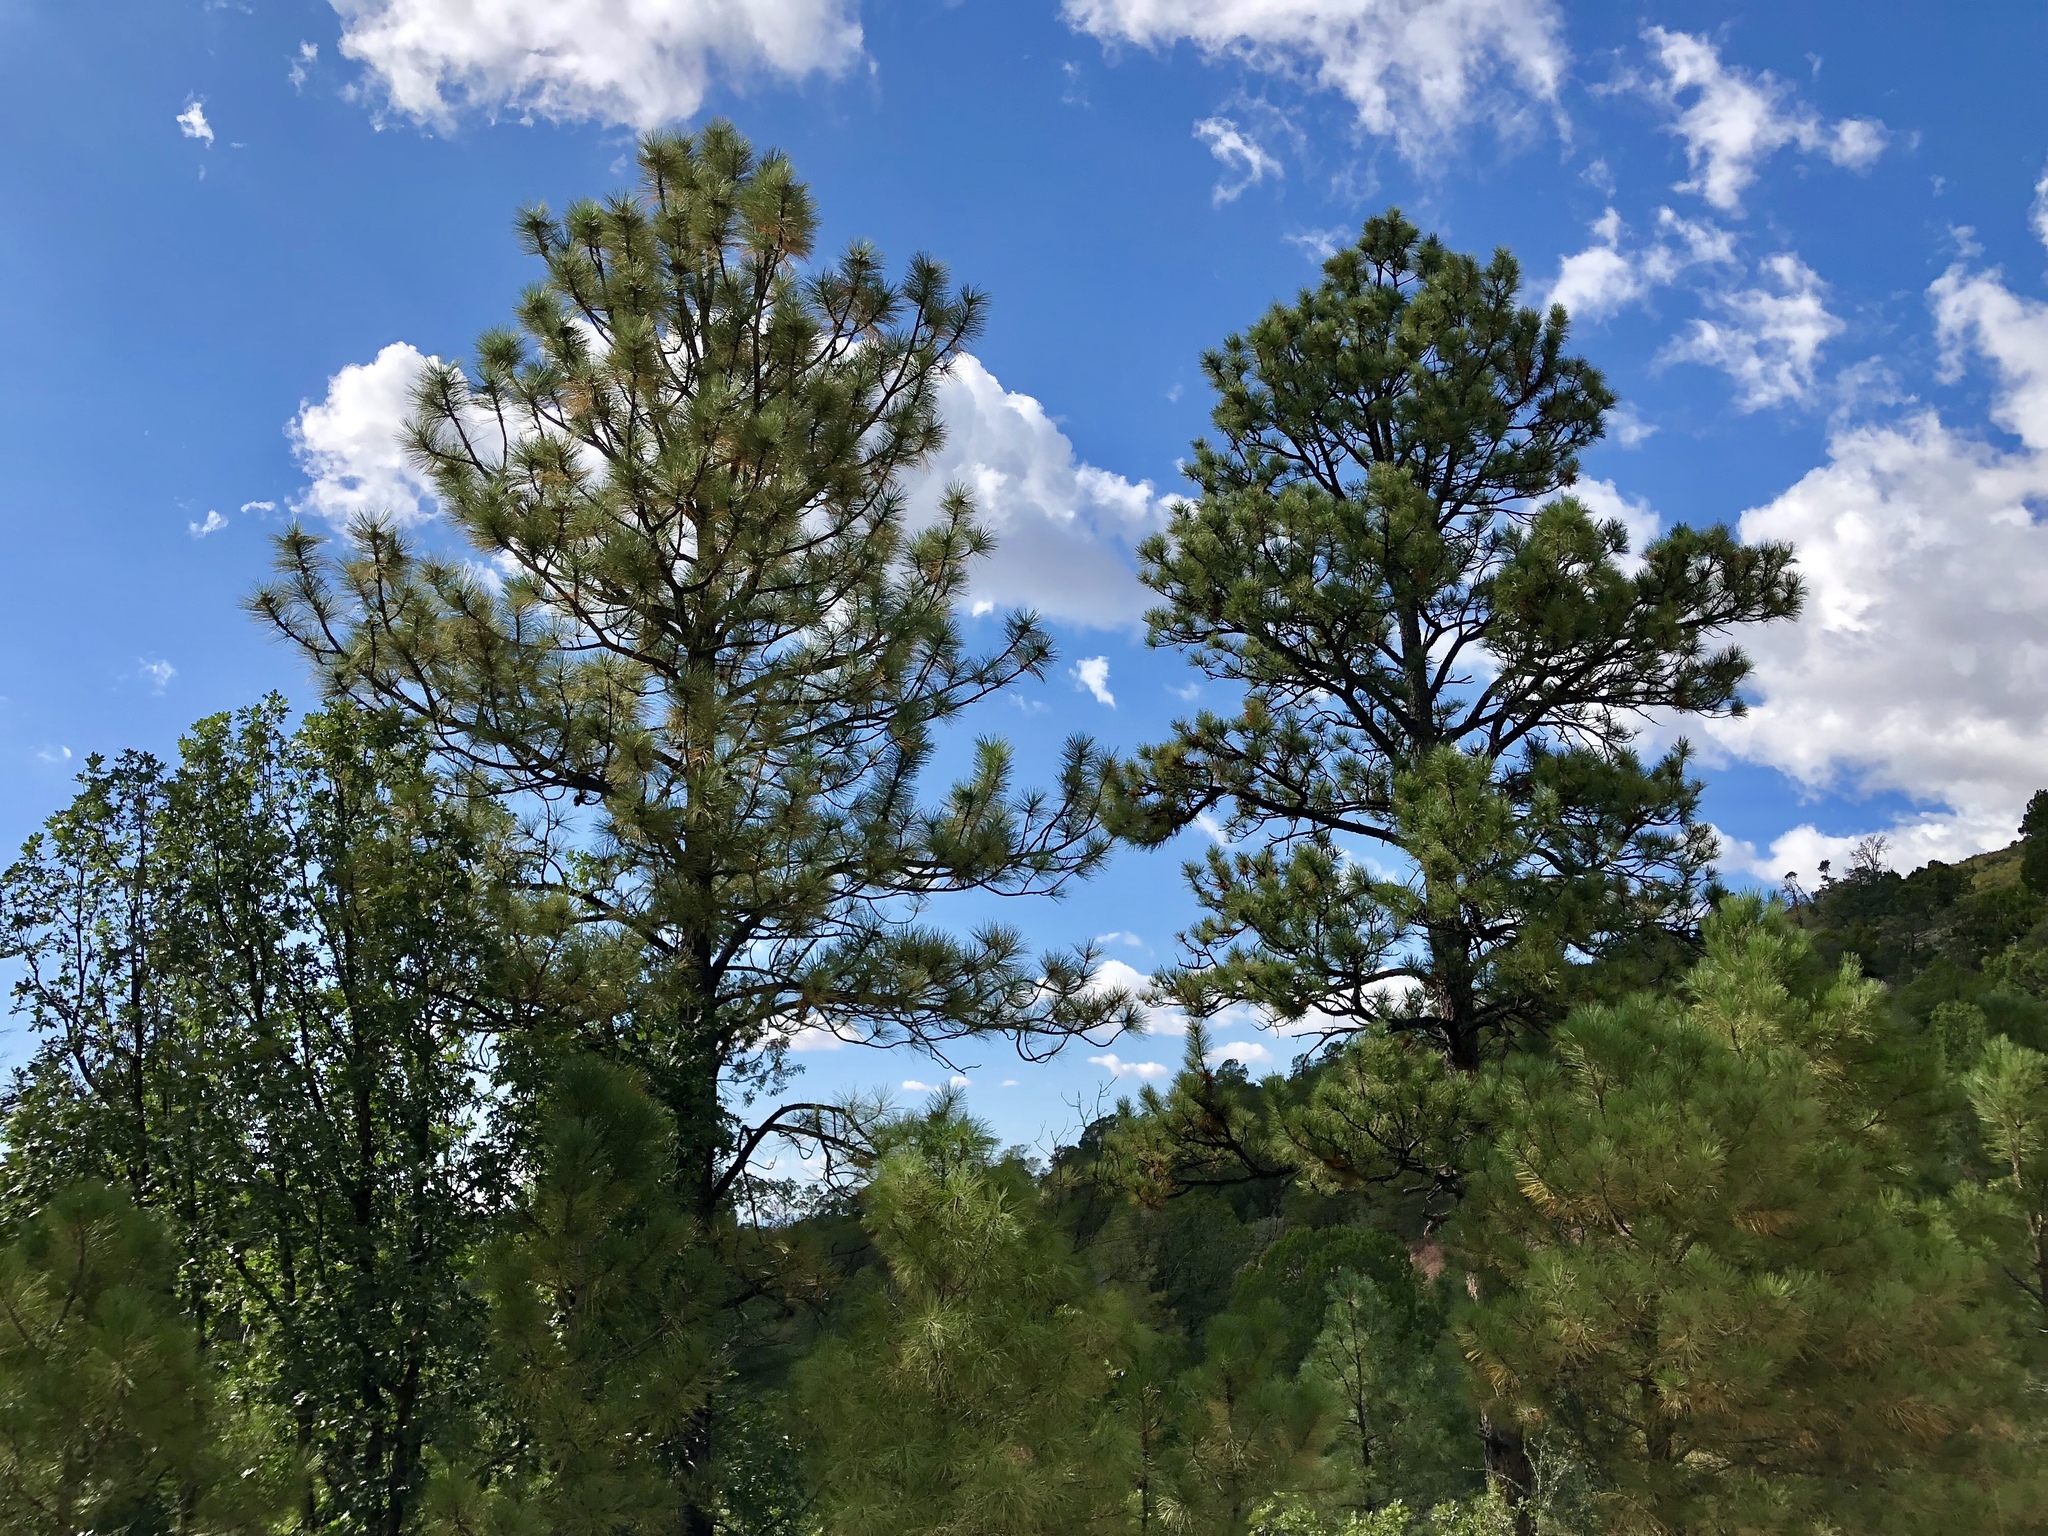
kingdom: Plantae
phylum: Tracheophyta
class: Pinopsida
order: Pinales
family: Pinaceae
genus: Pinus
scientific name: Pinus ponderosa
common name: Western yellow-pine
